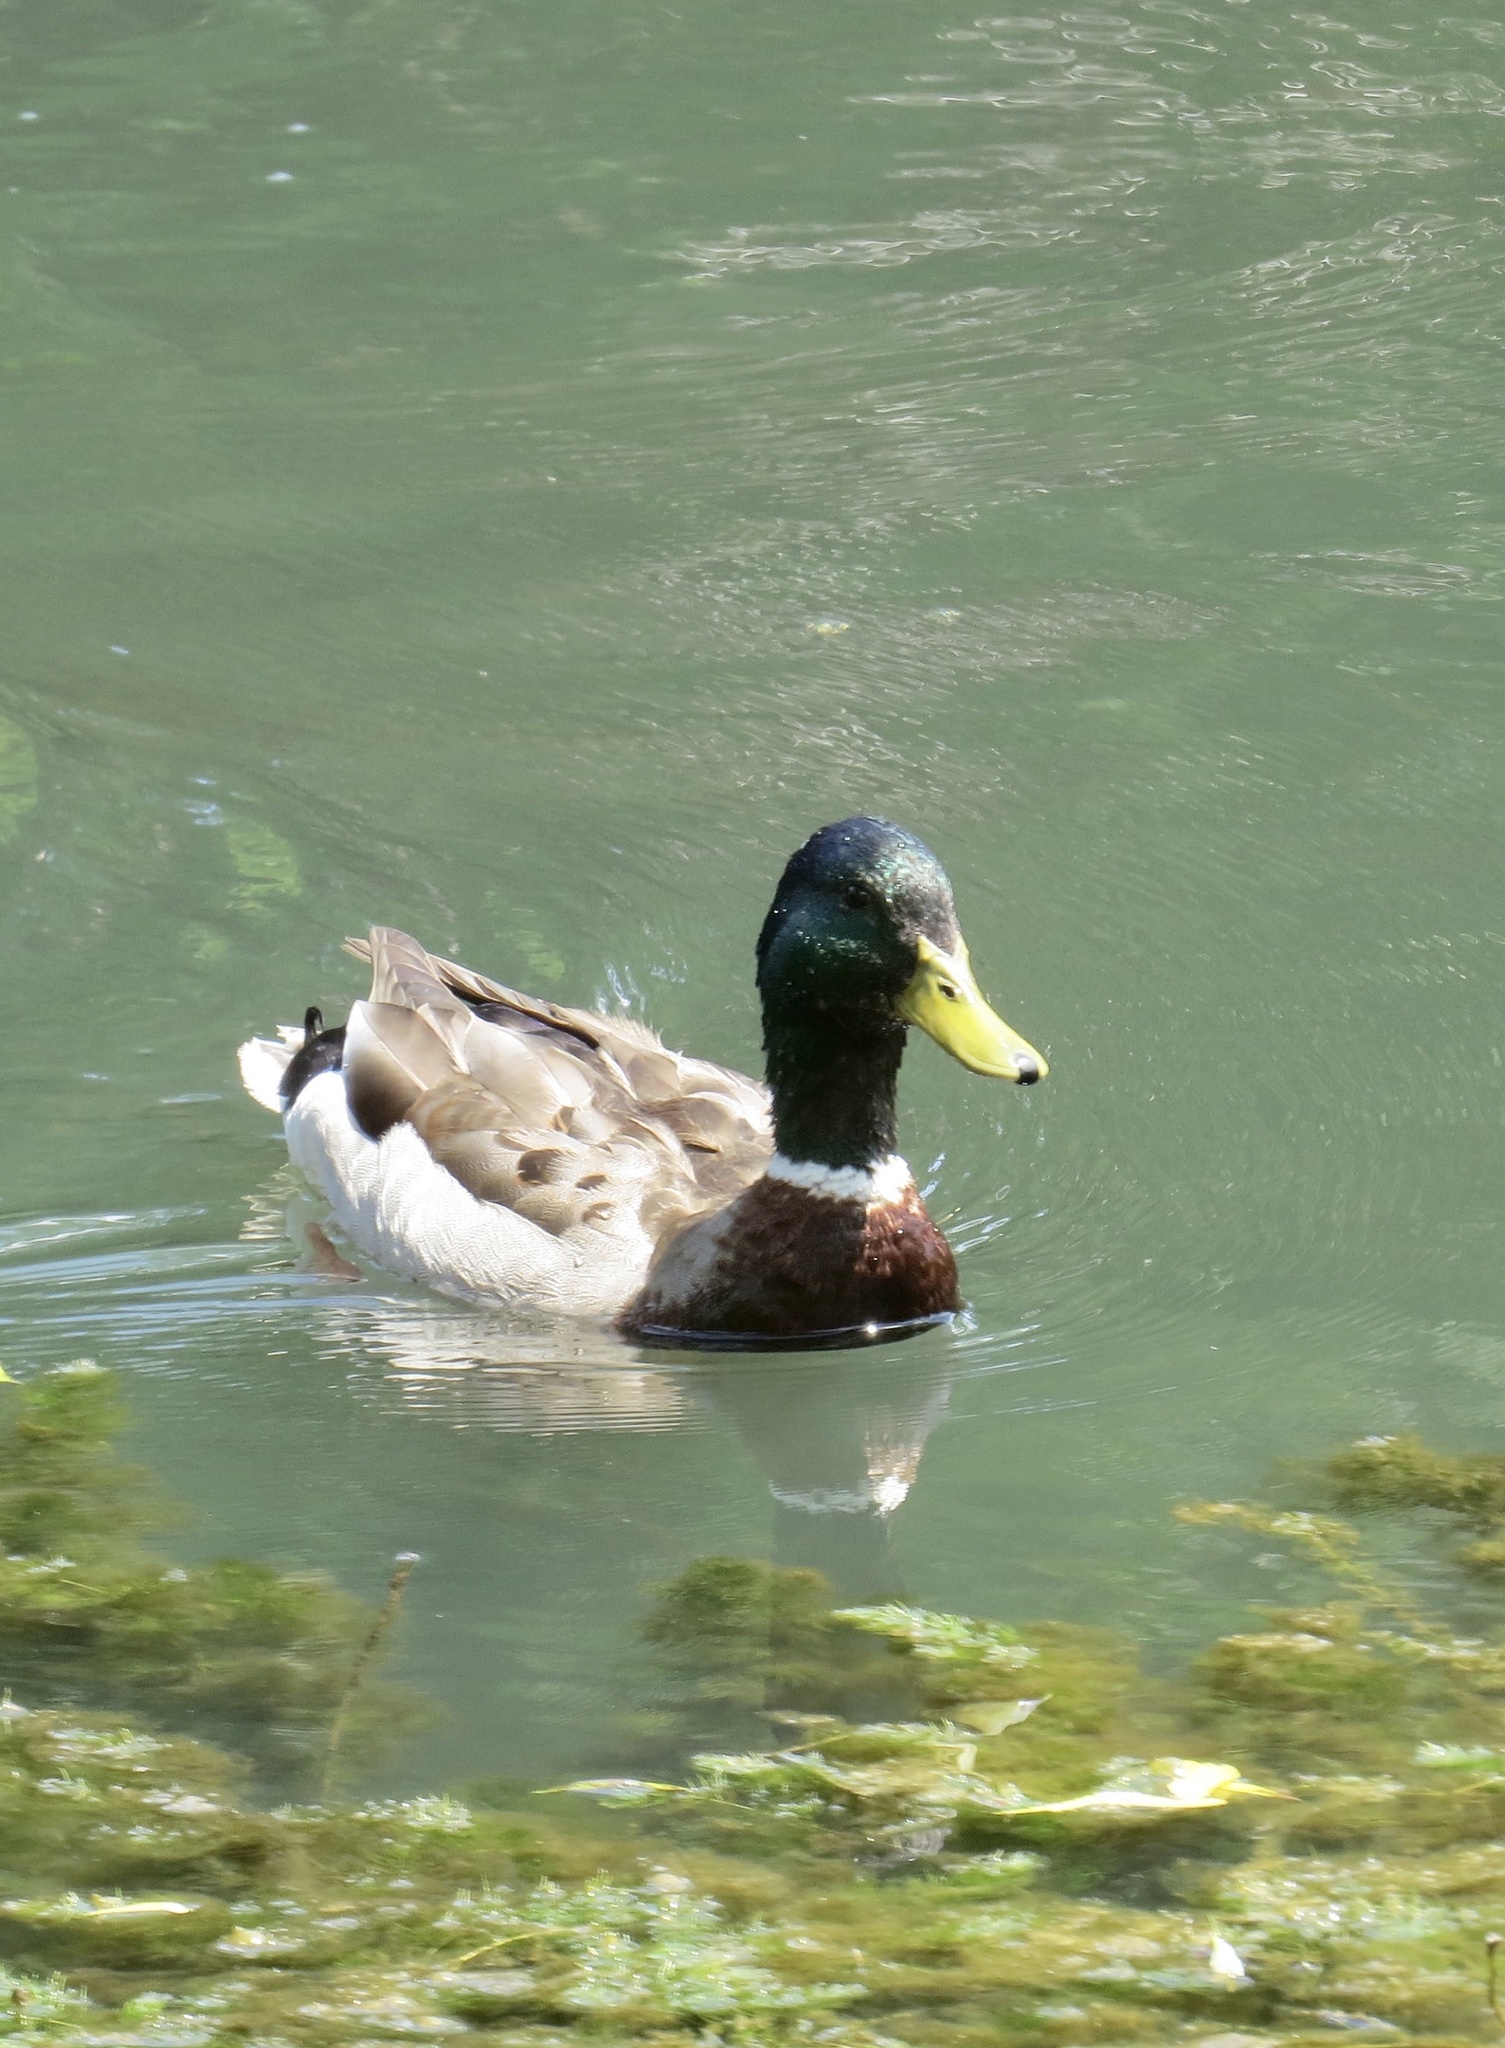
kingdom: Animalia
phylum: Chordata
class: Aves
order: Anseriformes
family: Anatidae
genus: Anas
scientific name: Anas platyrhynchos
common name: Mallard
